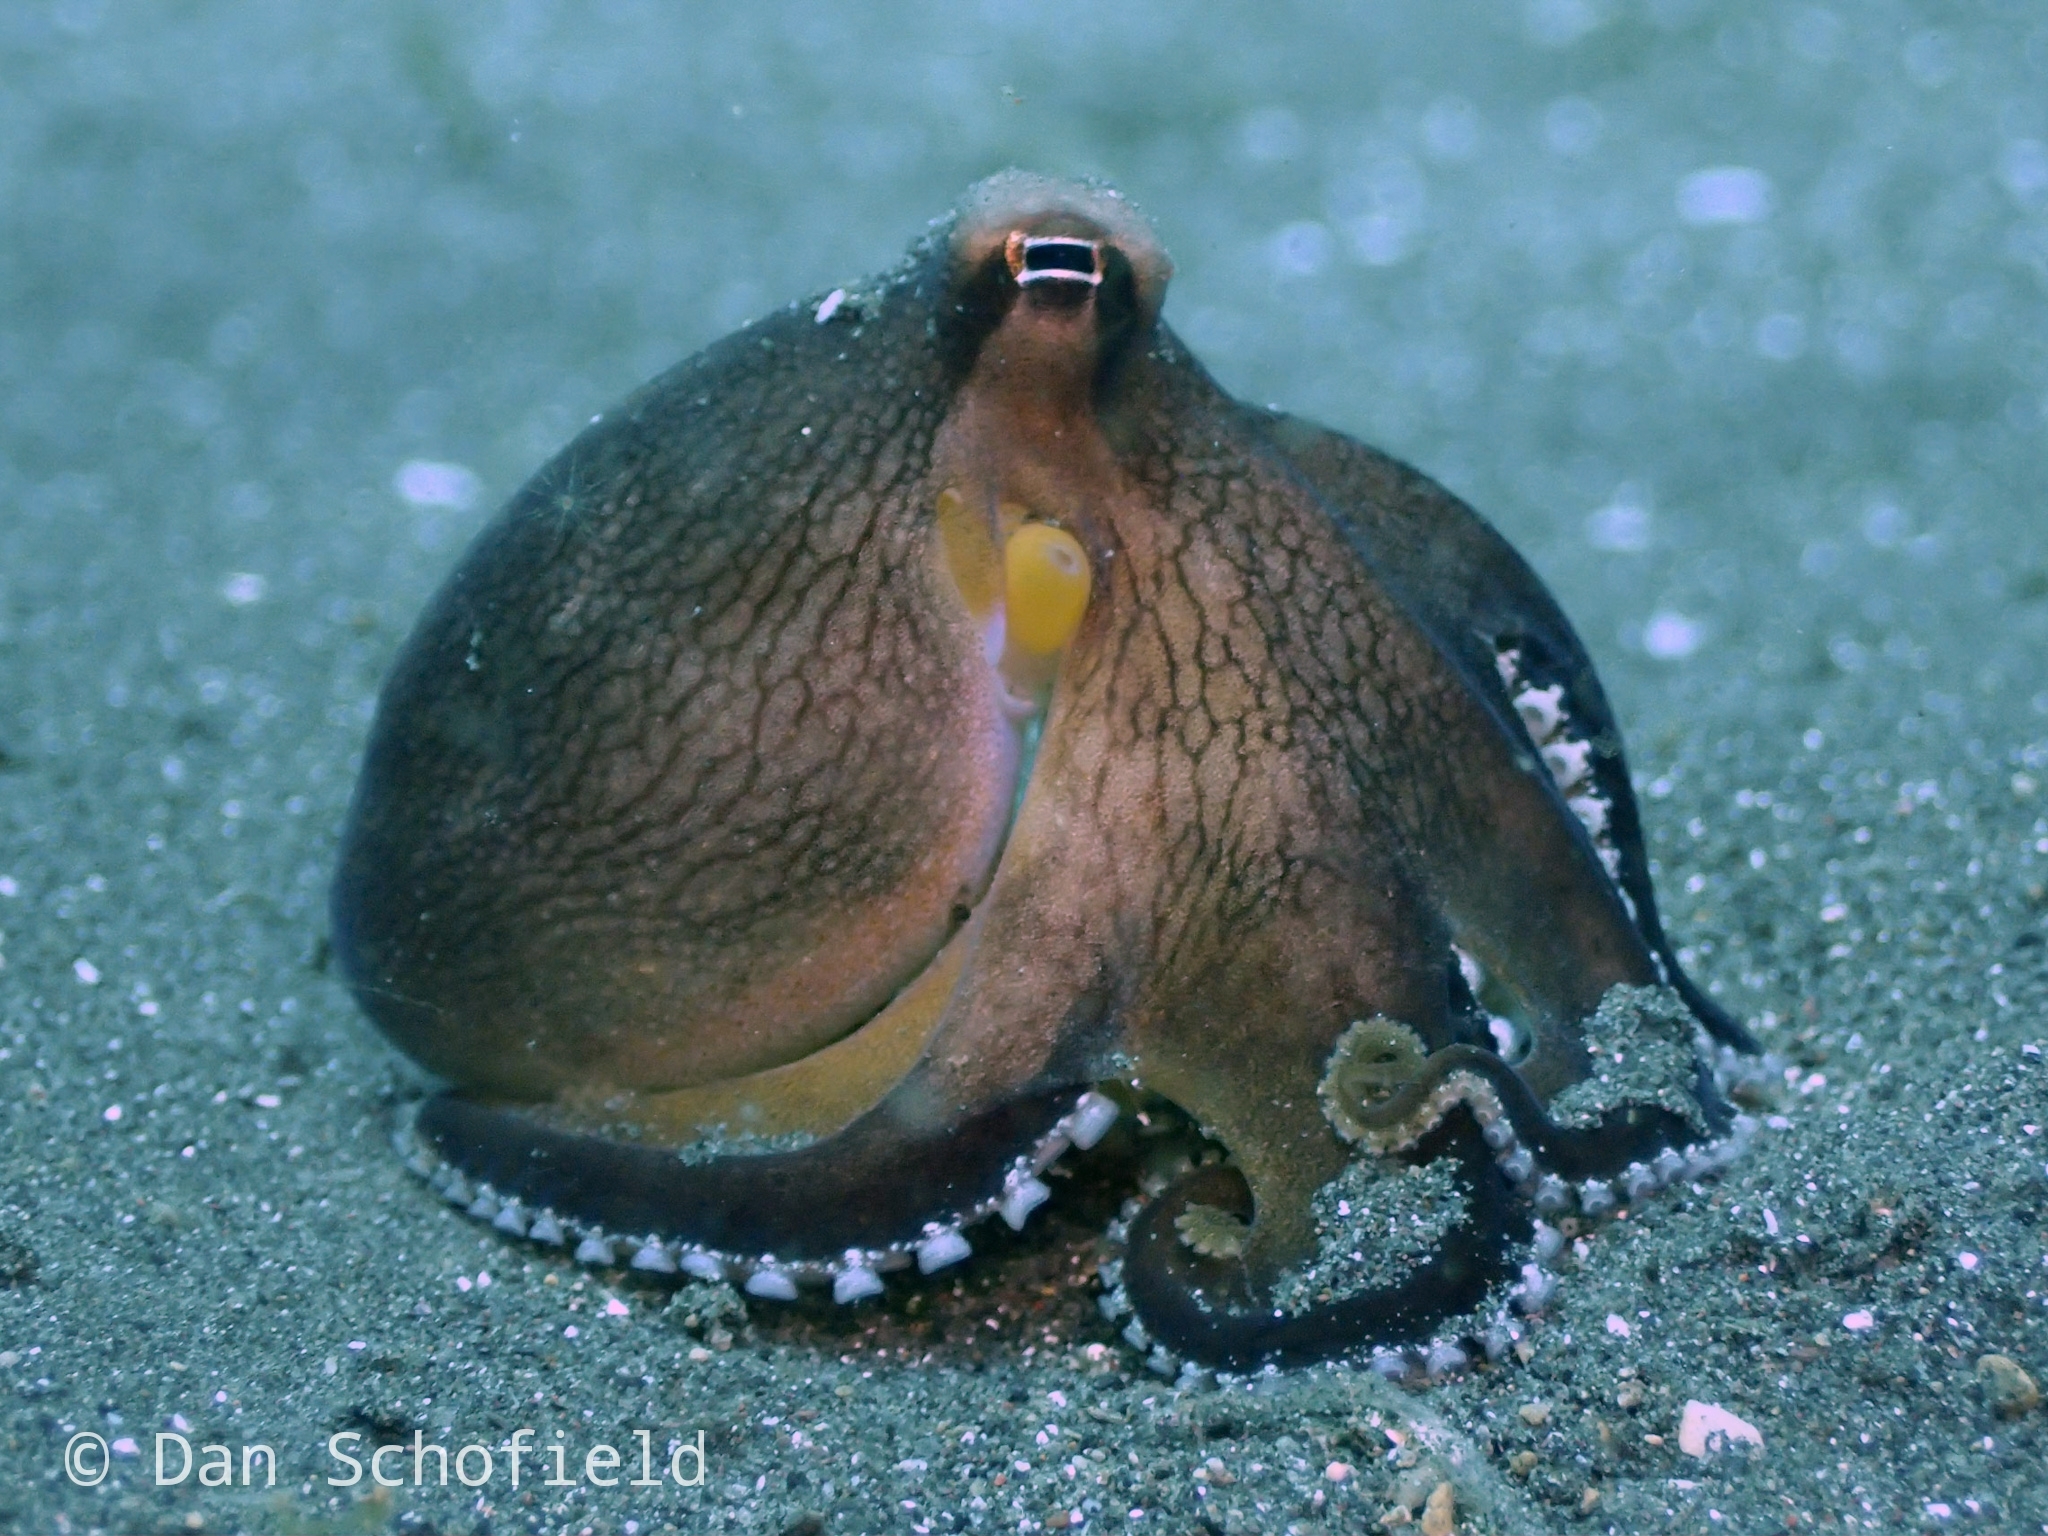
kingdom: Animalia
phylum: Mollusca
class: Cephalopoda
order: Octopoda
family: Octopodidae
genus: Amphioctopus
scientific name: Amphioctopus marginatus
